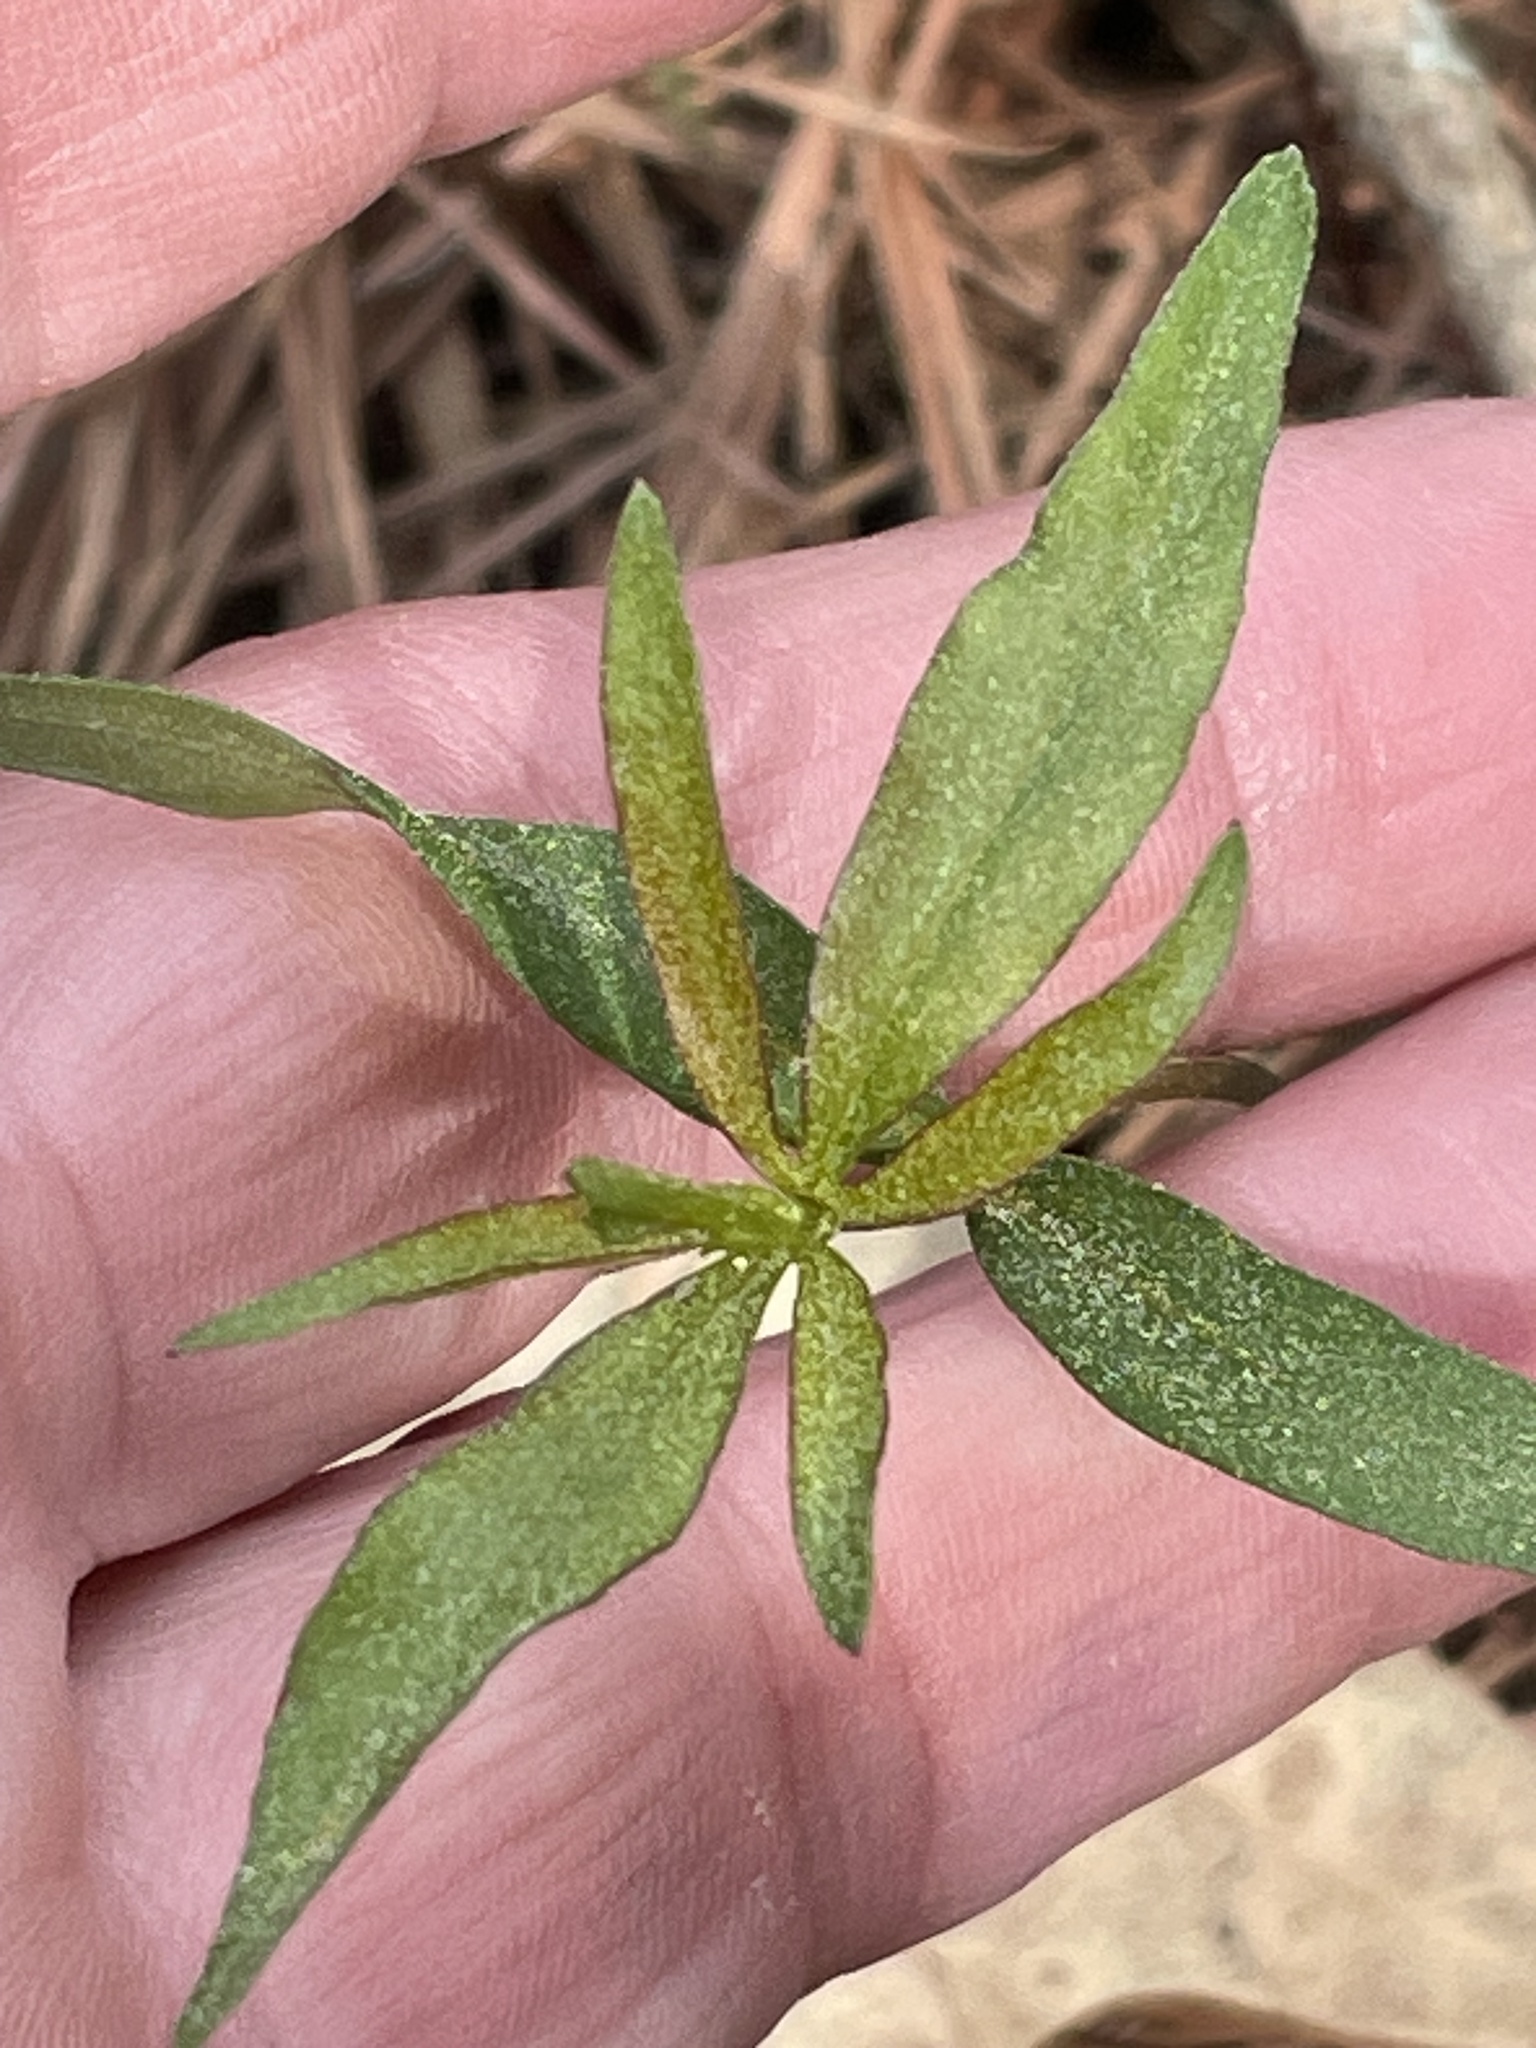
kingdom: Plantae
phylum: Tracheophyta
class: Magnoliopsida
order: Asterales
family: Asteraceae
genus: Coreopsis
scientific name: Coreopsis major
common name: Forest tickseed
